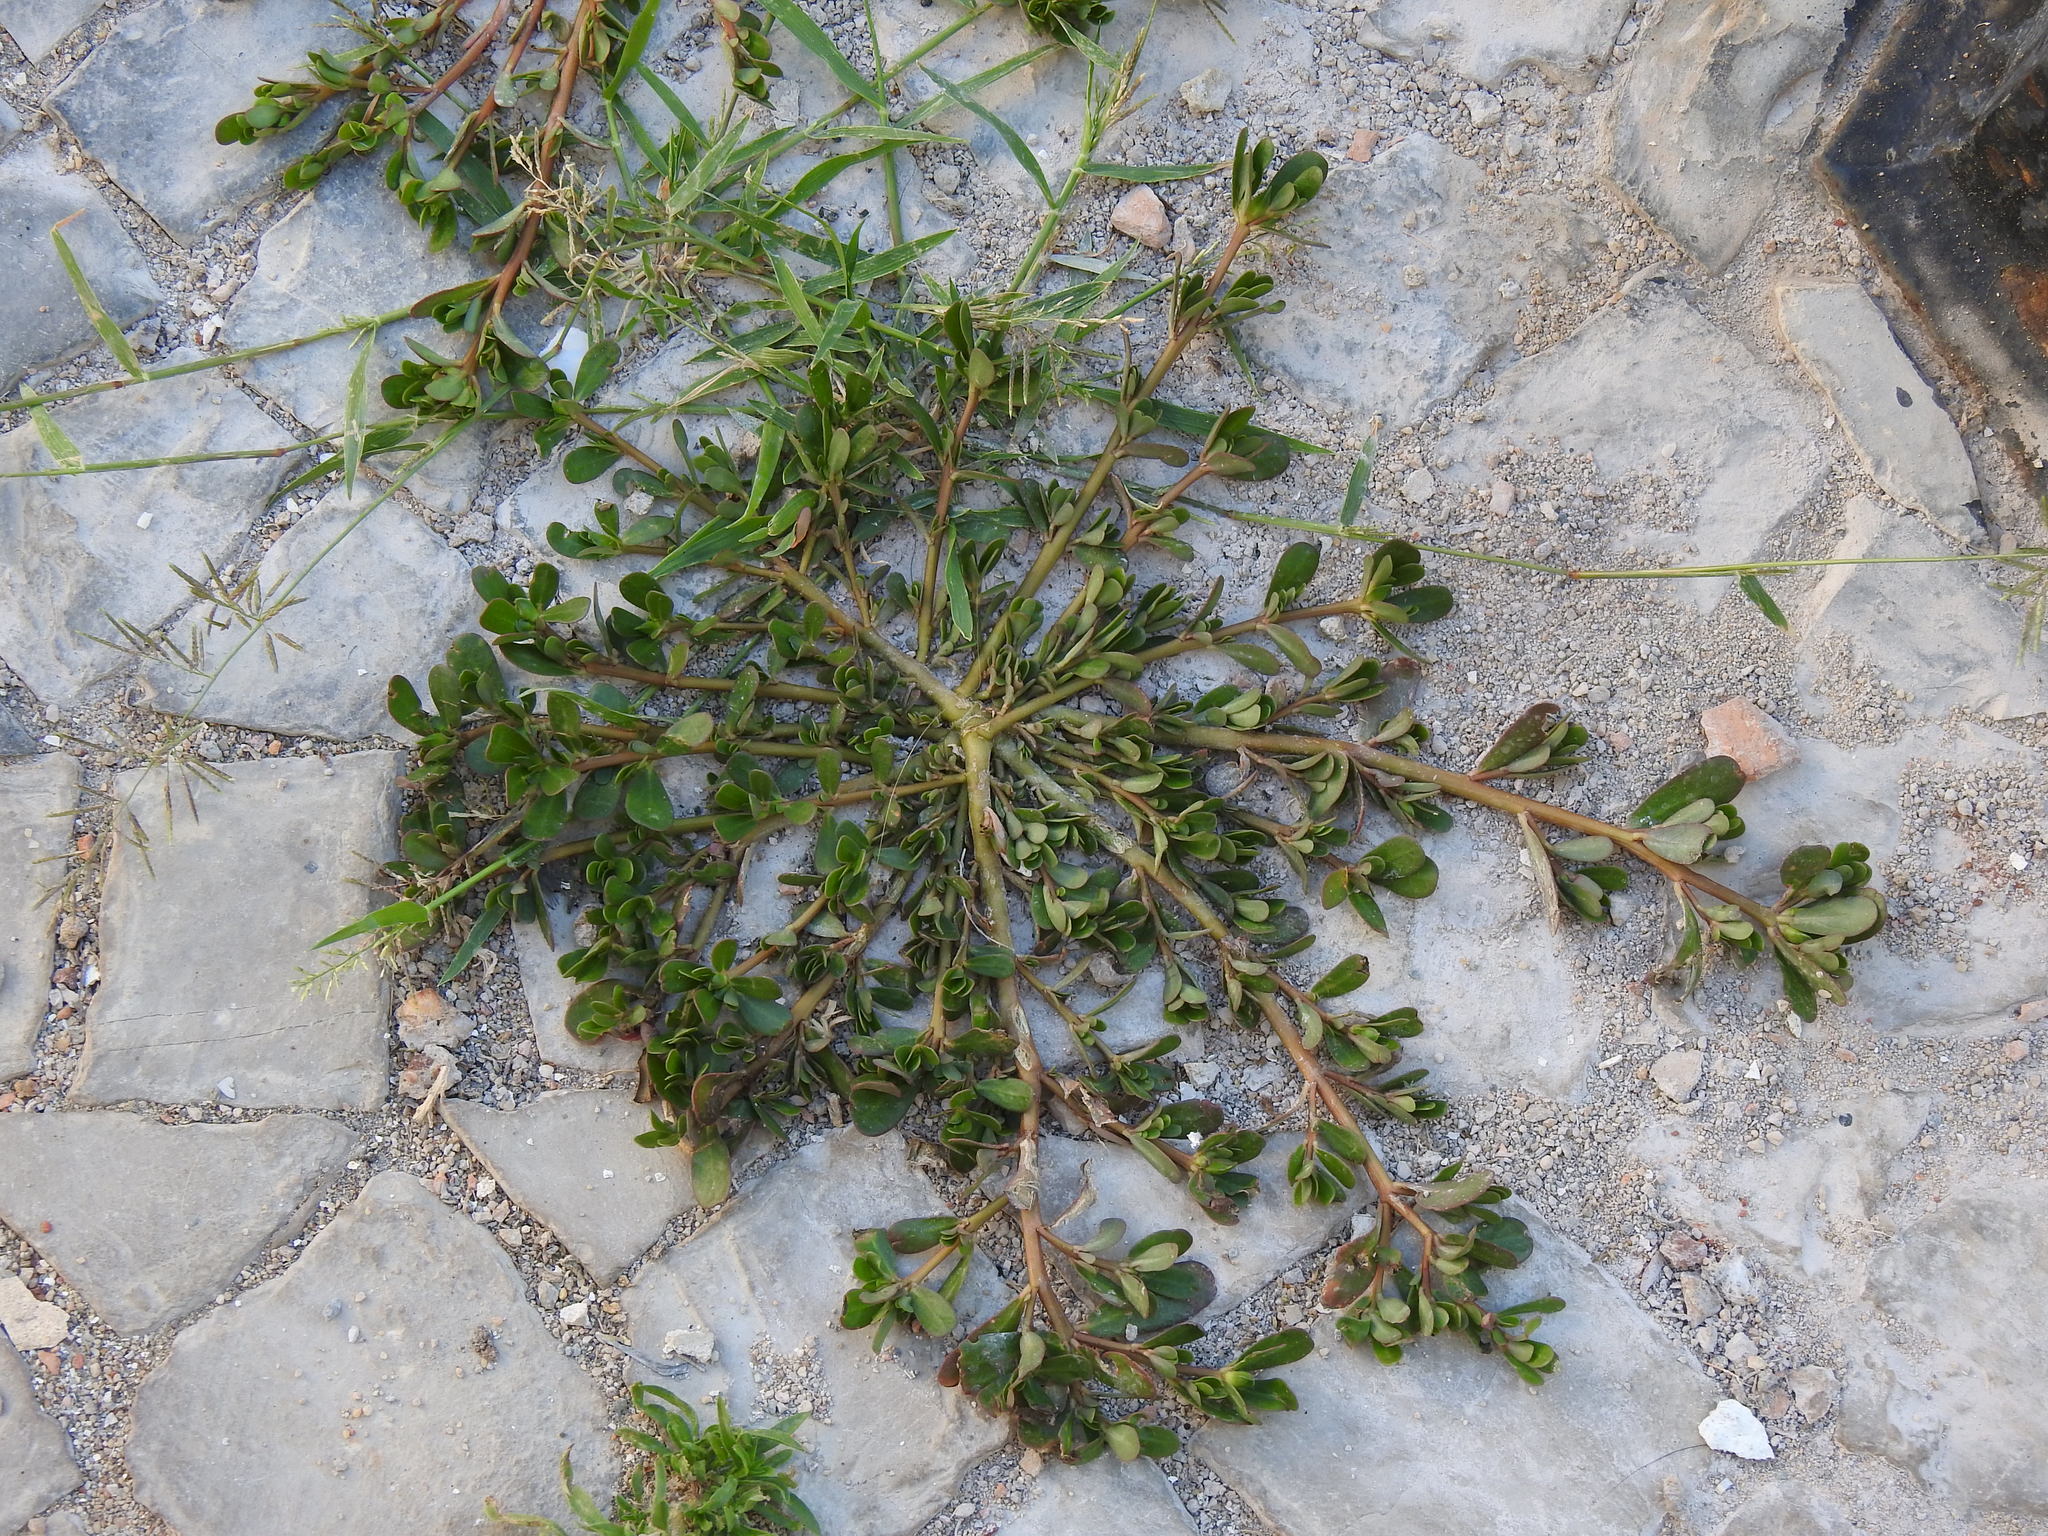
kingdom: Plantae
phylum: Tracheophyta
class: Magnoliopsida
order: Caryophyllales
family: Portulacaceae
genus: Portulaca
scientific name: Portulaca oleracea
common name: Common purslane
